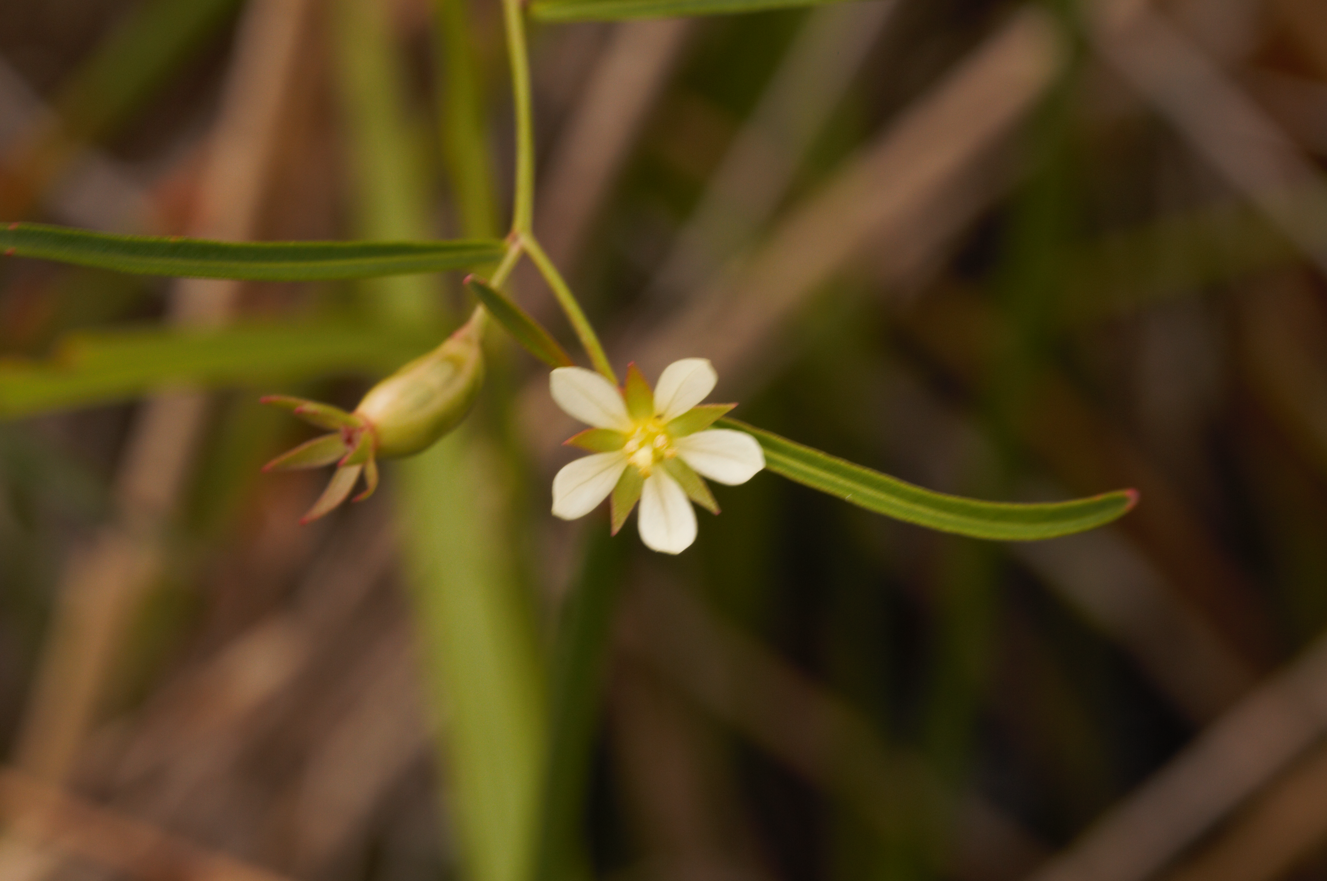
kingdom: Plantae
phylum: Tracheophyta
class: Magnoliopsida
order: Myrtales
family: Onagraceae
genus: Ludwigia
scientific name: Ludwigia torulosa
